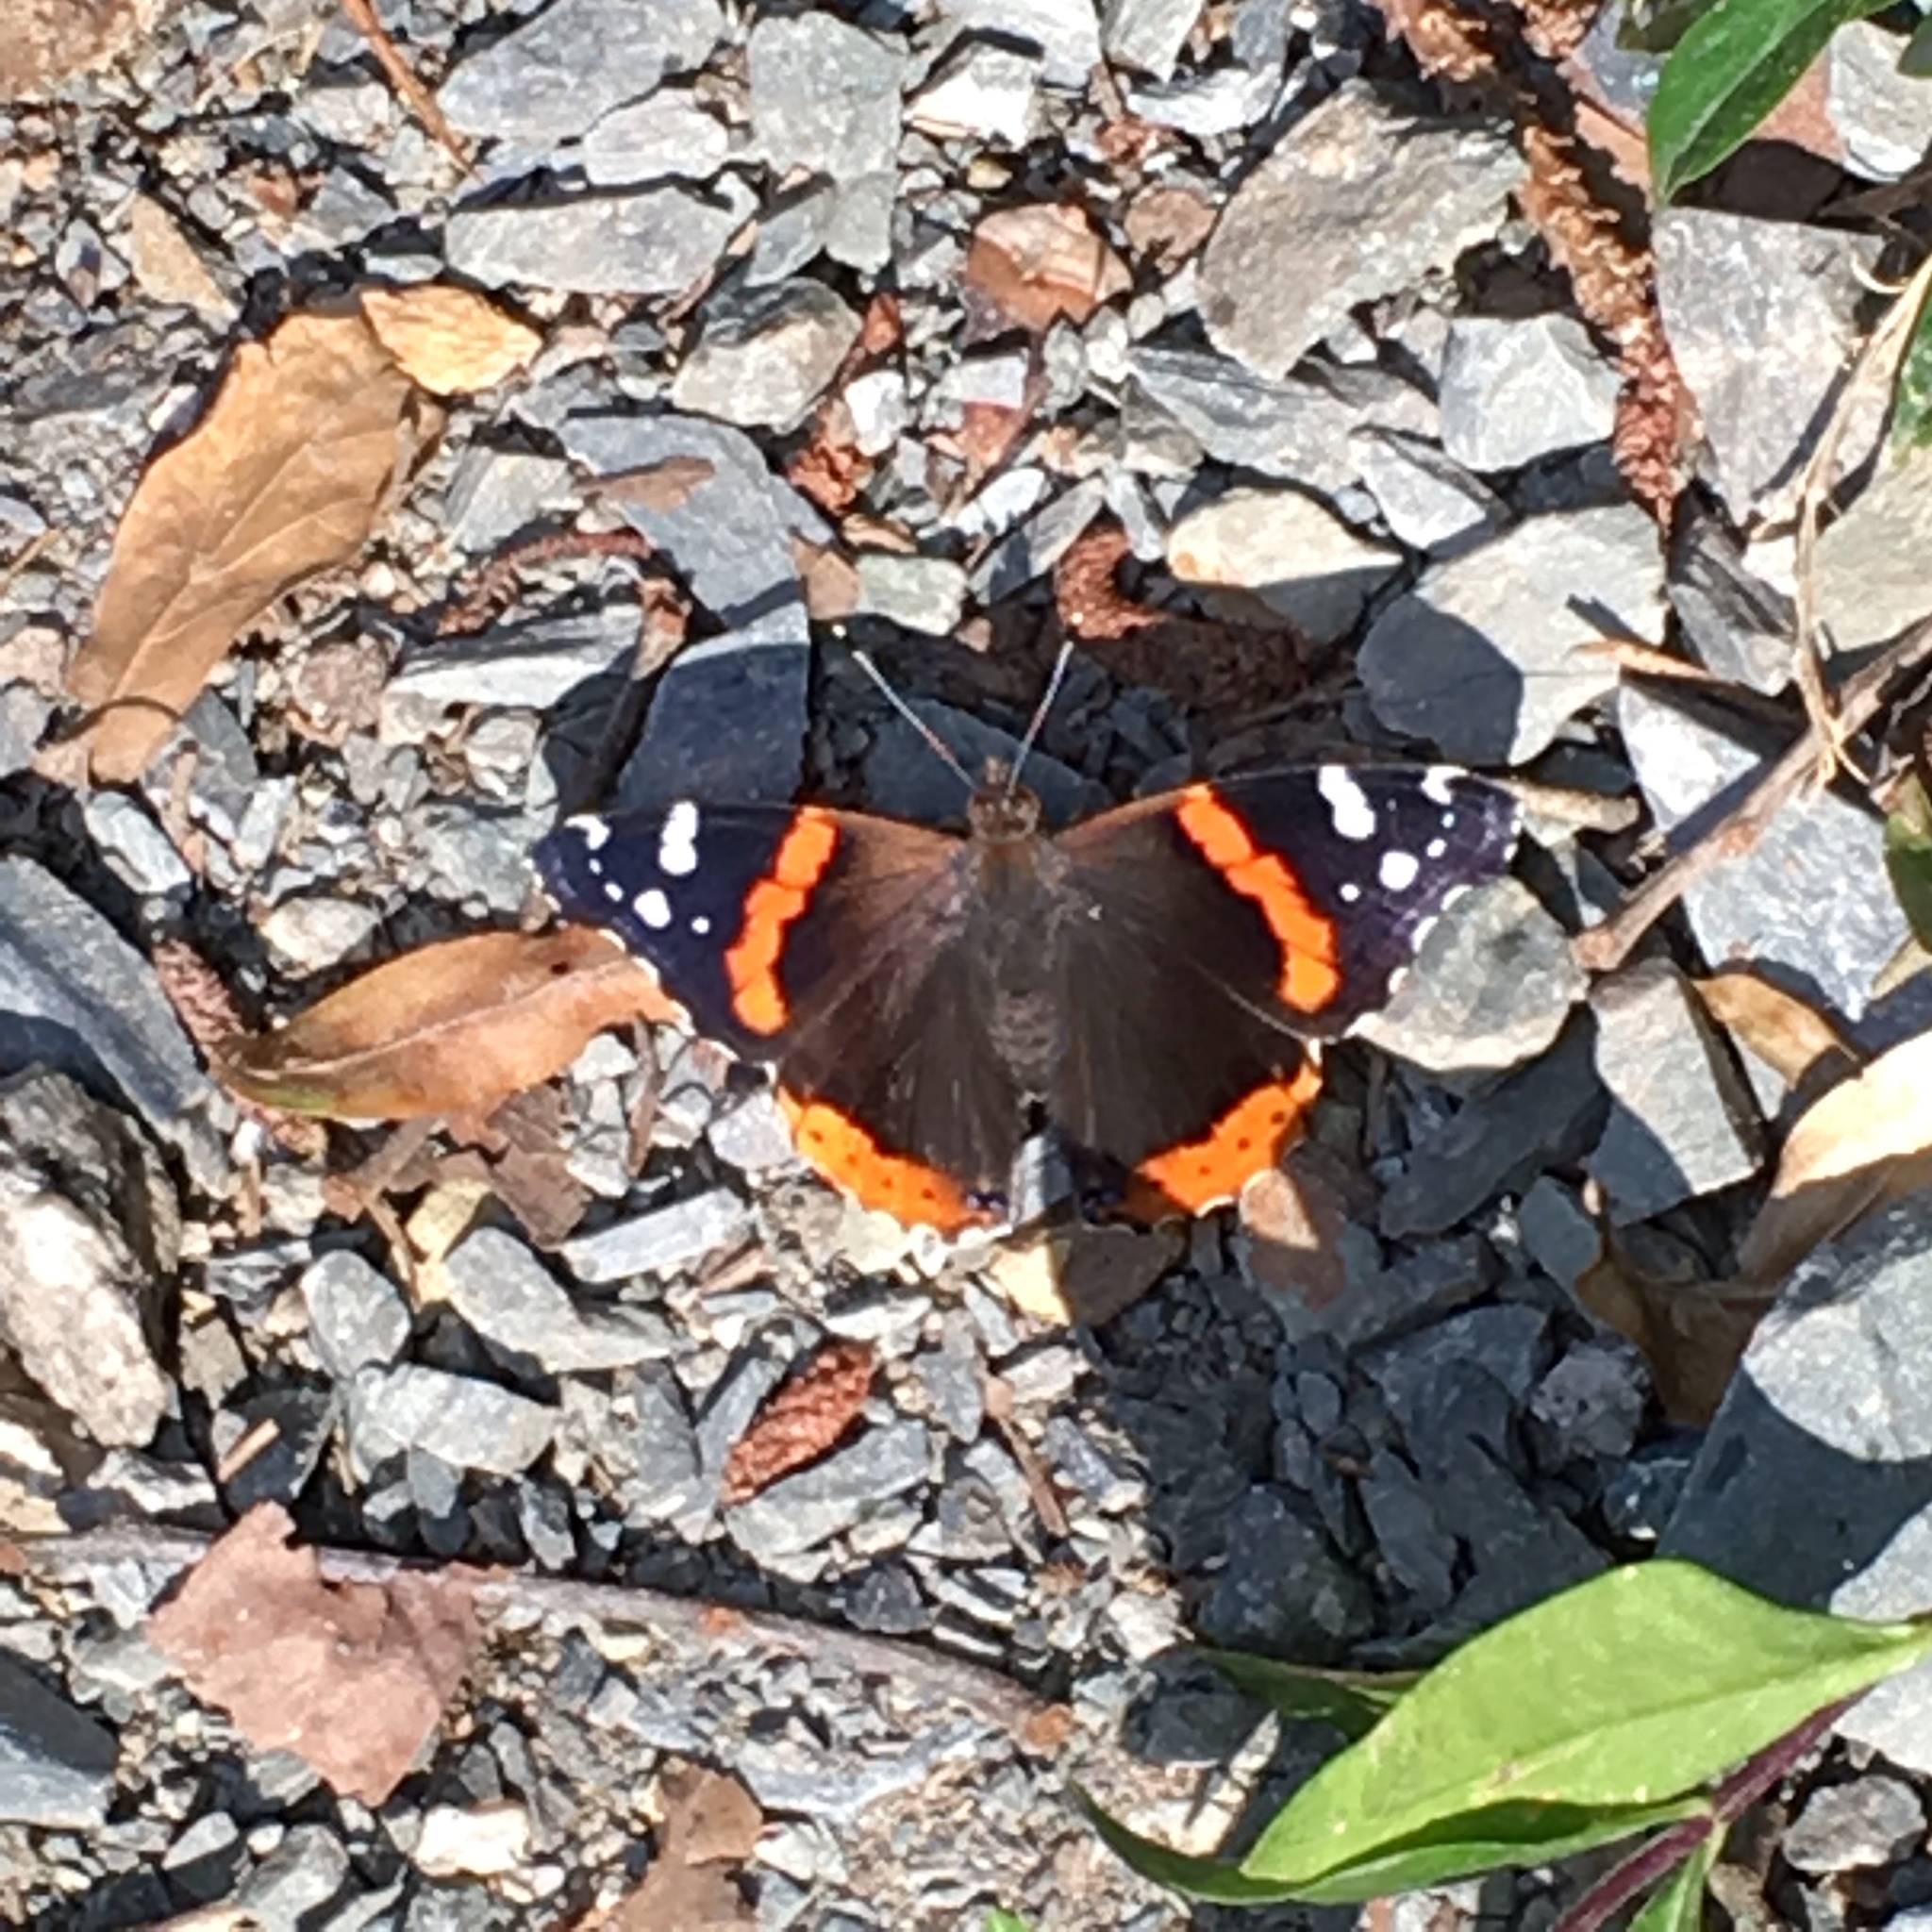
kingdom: Animalia
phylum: Arthropoda
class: Insecta
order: Lepidoptera
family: Nymphalidae
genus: Vanessa
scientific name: Vanessa atalanta
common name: Red admiral
